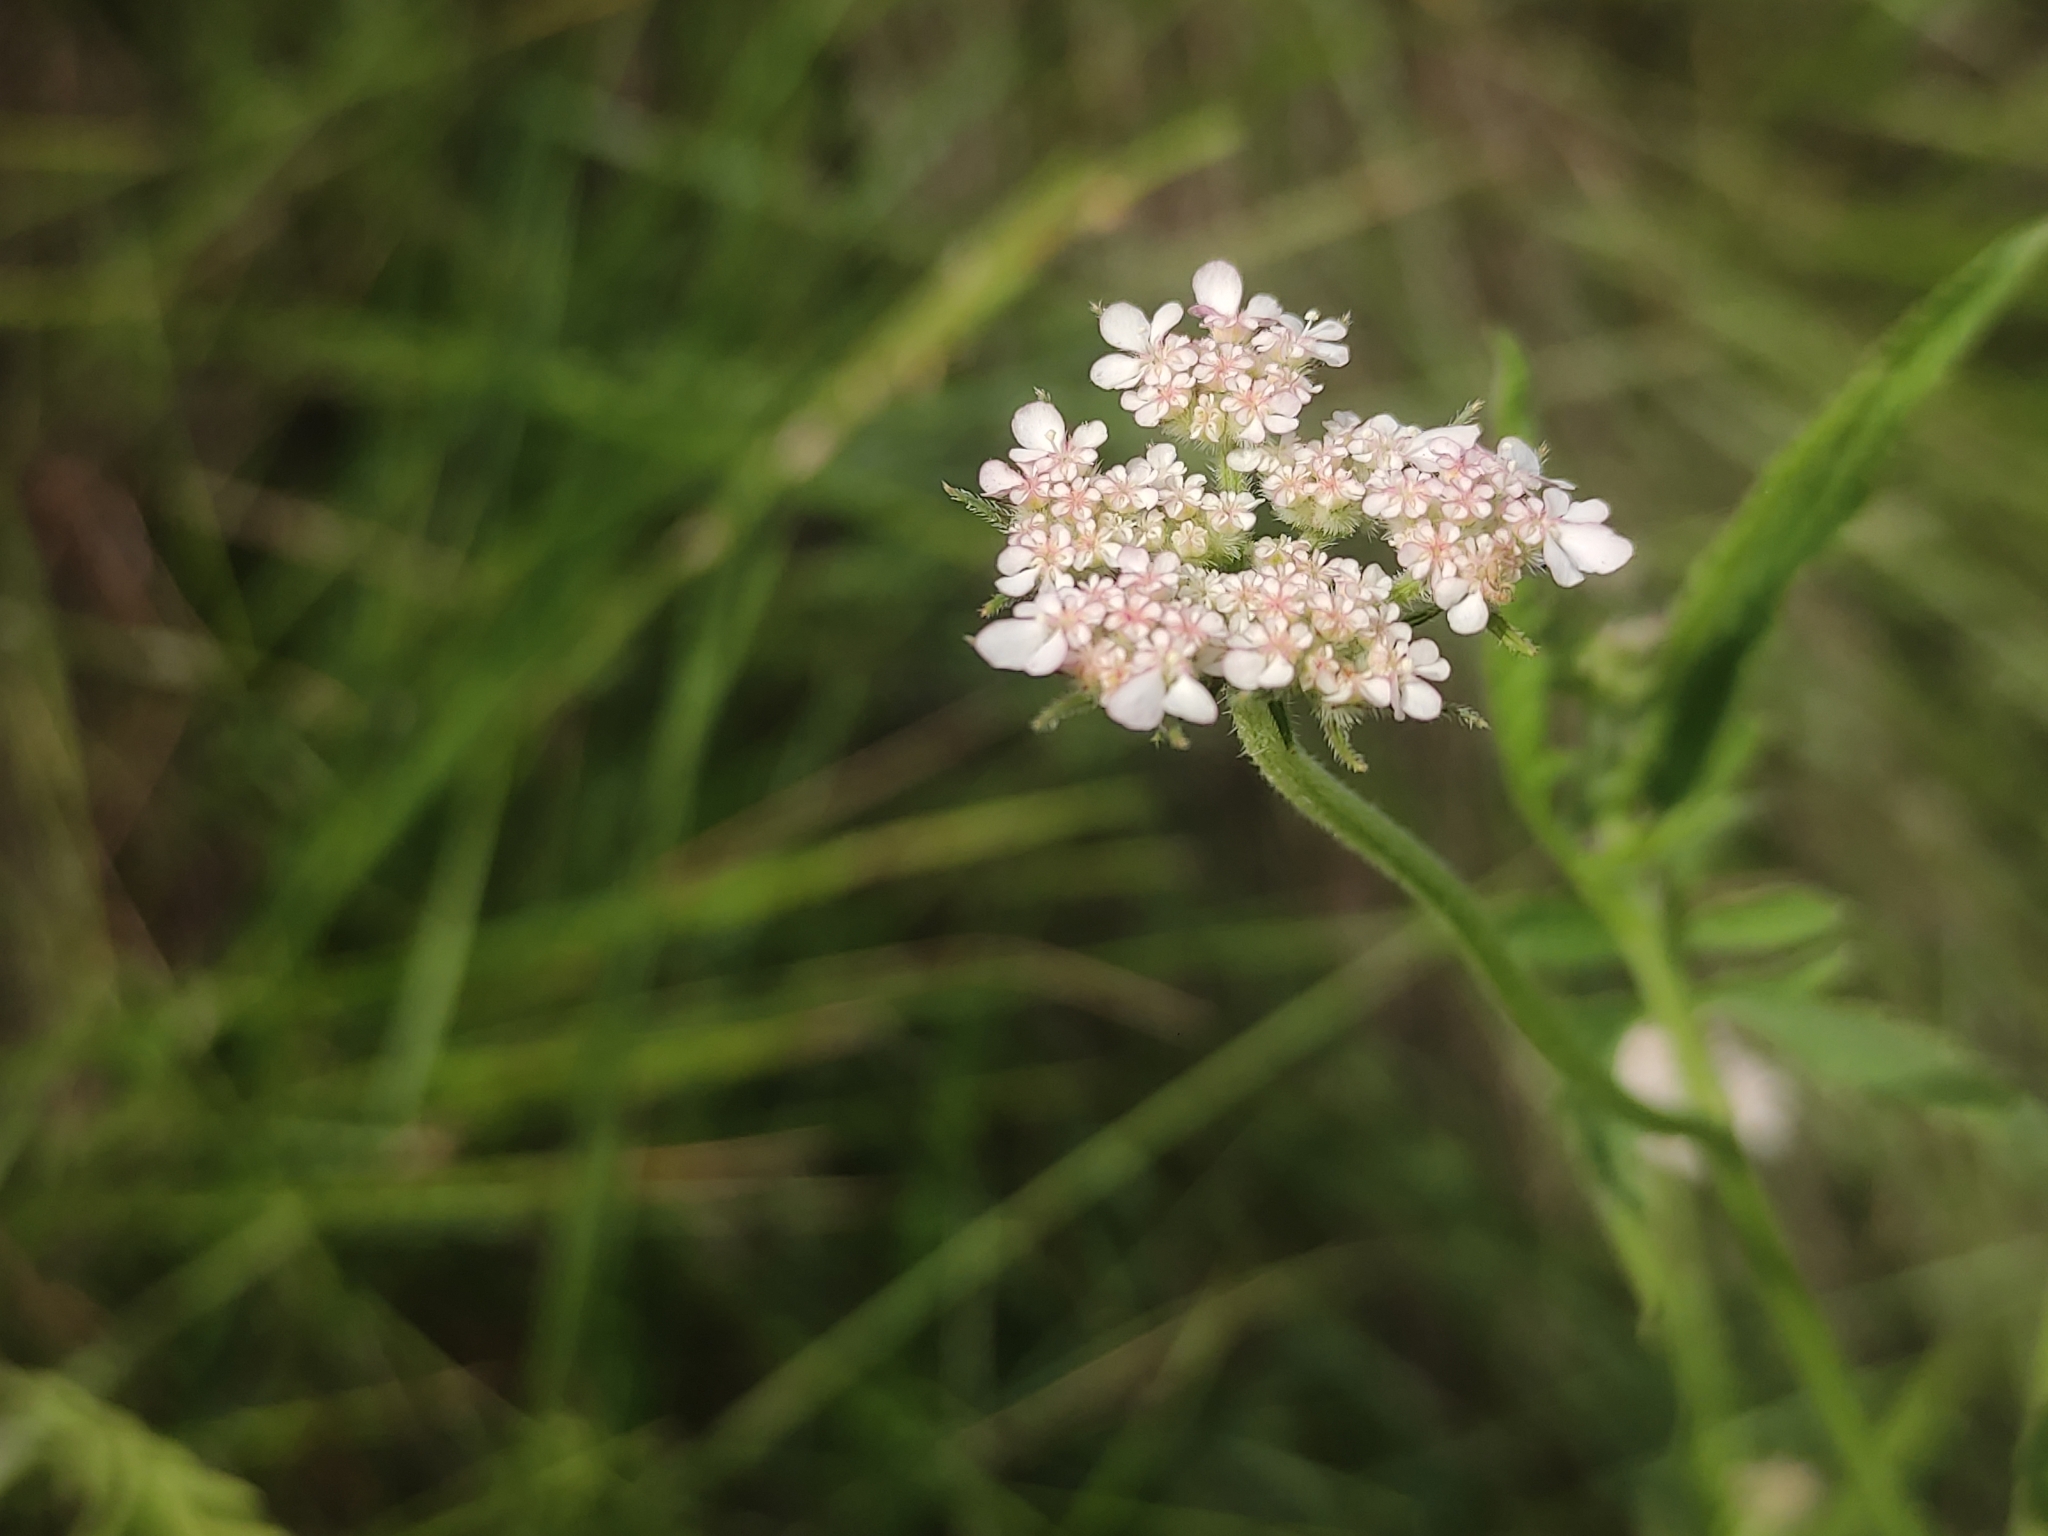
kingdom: Plantae
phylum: Tracheophyta
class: Magnoliopsida
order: Apiales
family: Apiaceae
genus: Tordylium
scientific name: Tordylium maximum
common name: Hartwort
